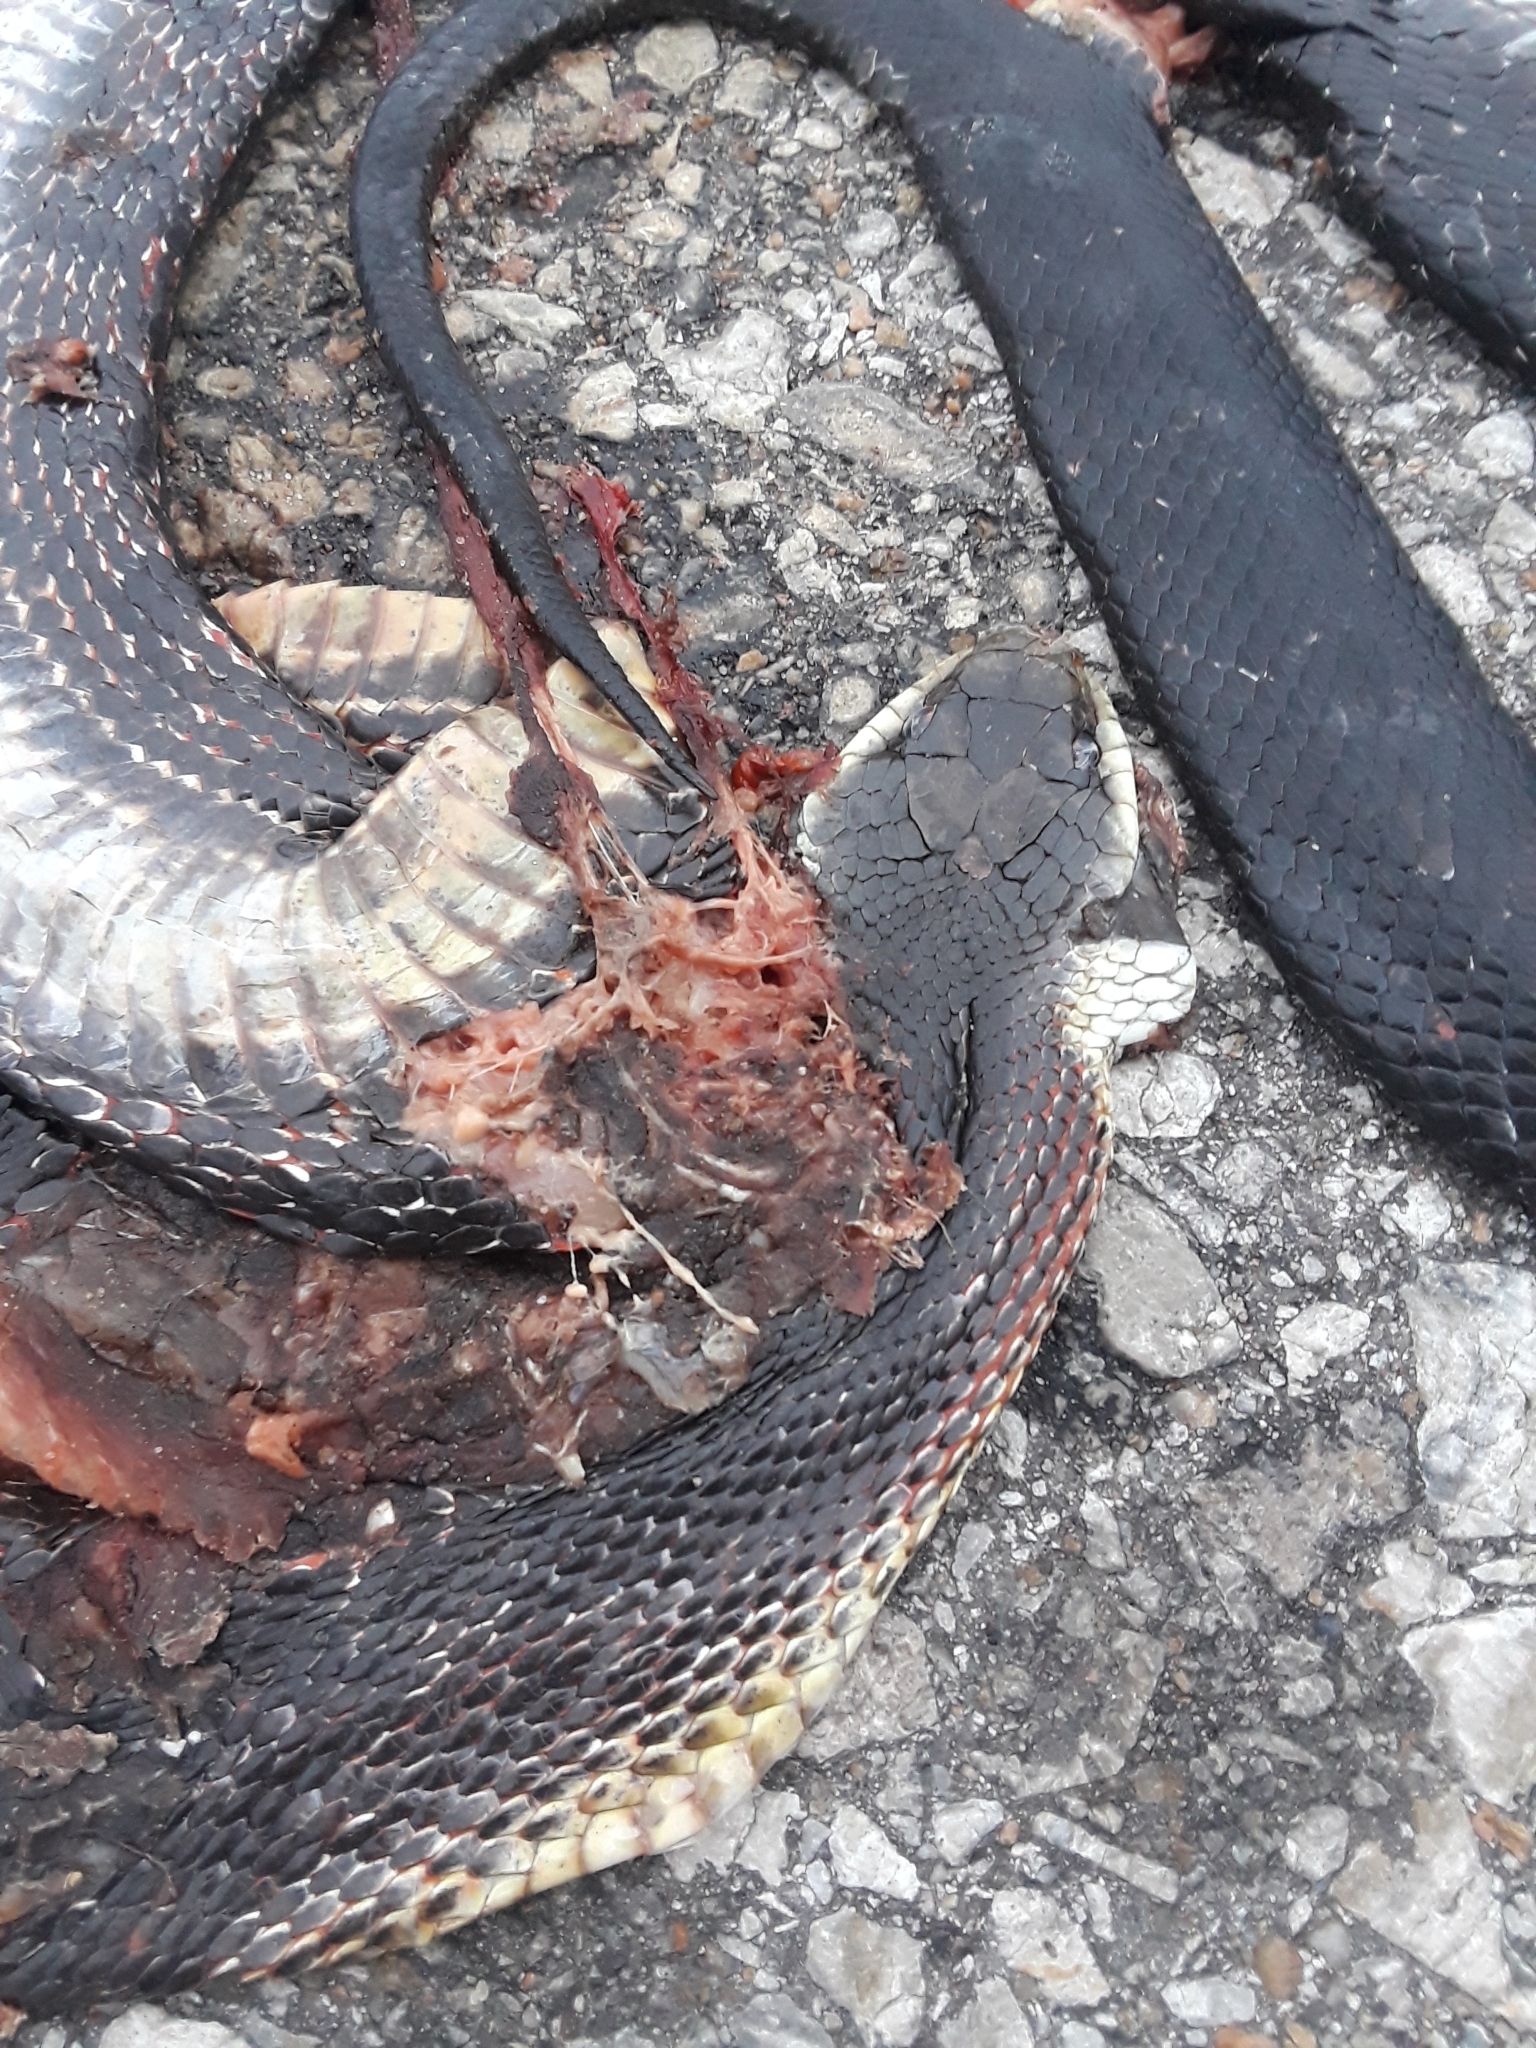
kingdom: Animalia
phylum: Chordata
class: Squamata
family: Colubridae
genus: Pantherophis
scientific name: Pantherophis obsoletus
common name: Black rat snake
